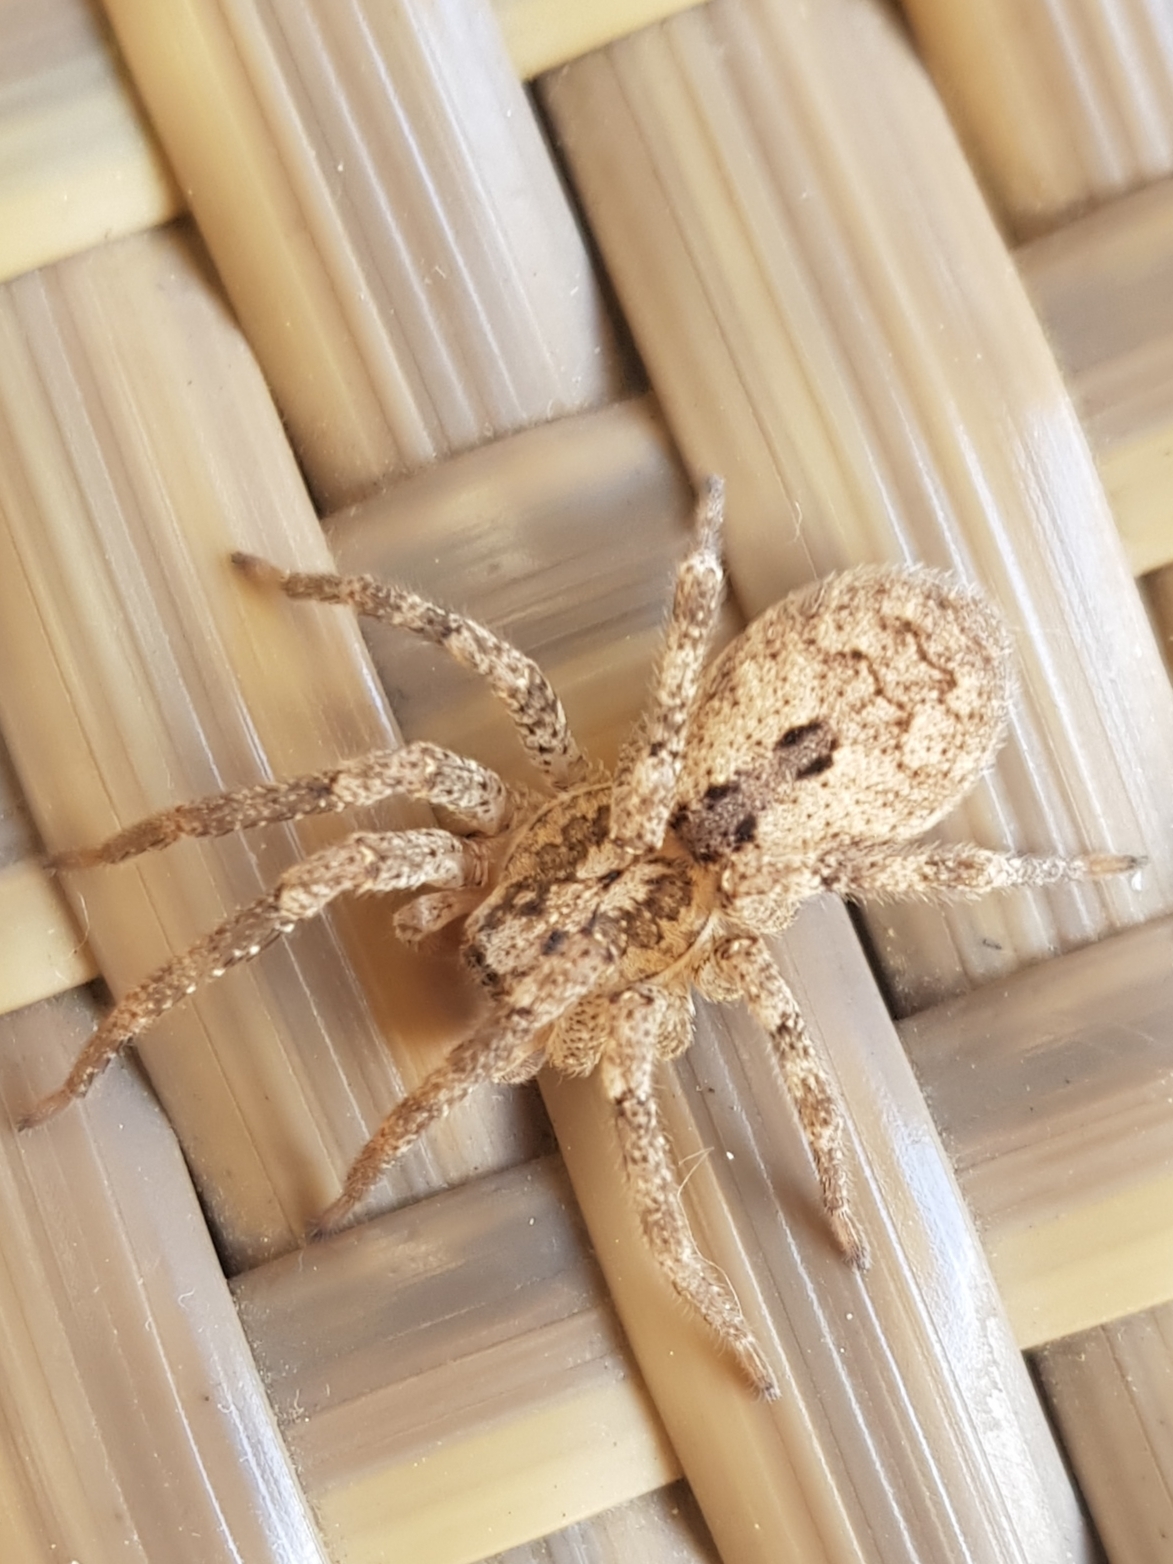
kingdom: Animalia
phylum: Arthropoda
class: Arachnida
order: Araneae
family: Zoropsidae
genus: Zoropsis
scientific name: Zoropsis spinimana
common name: Zoropsid spider
